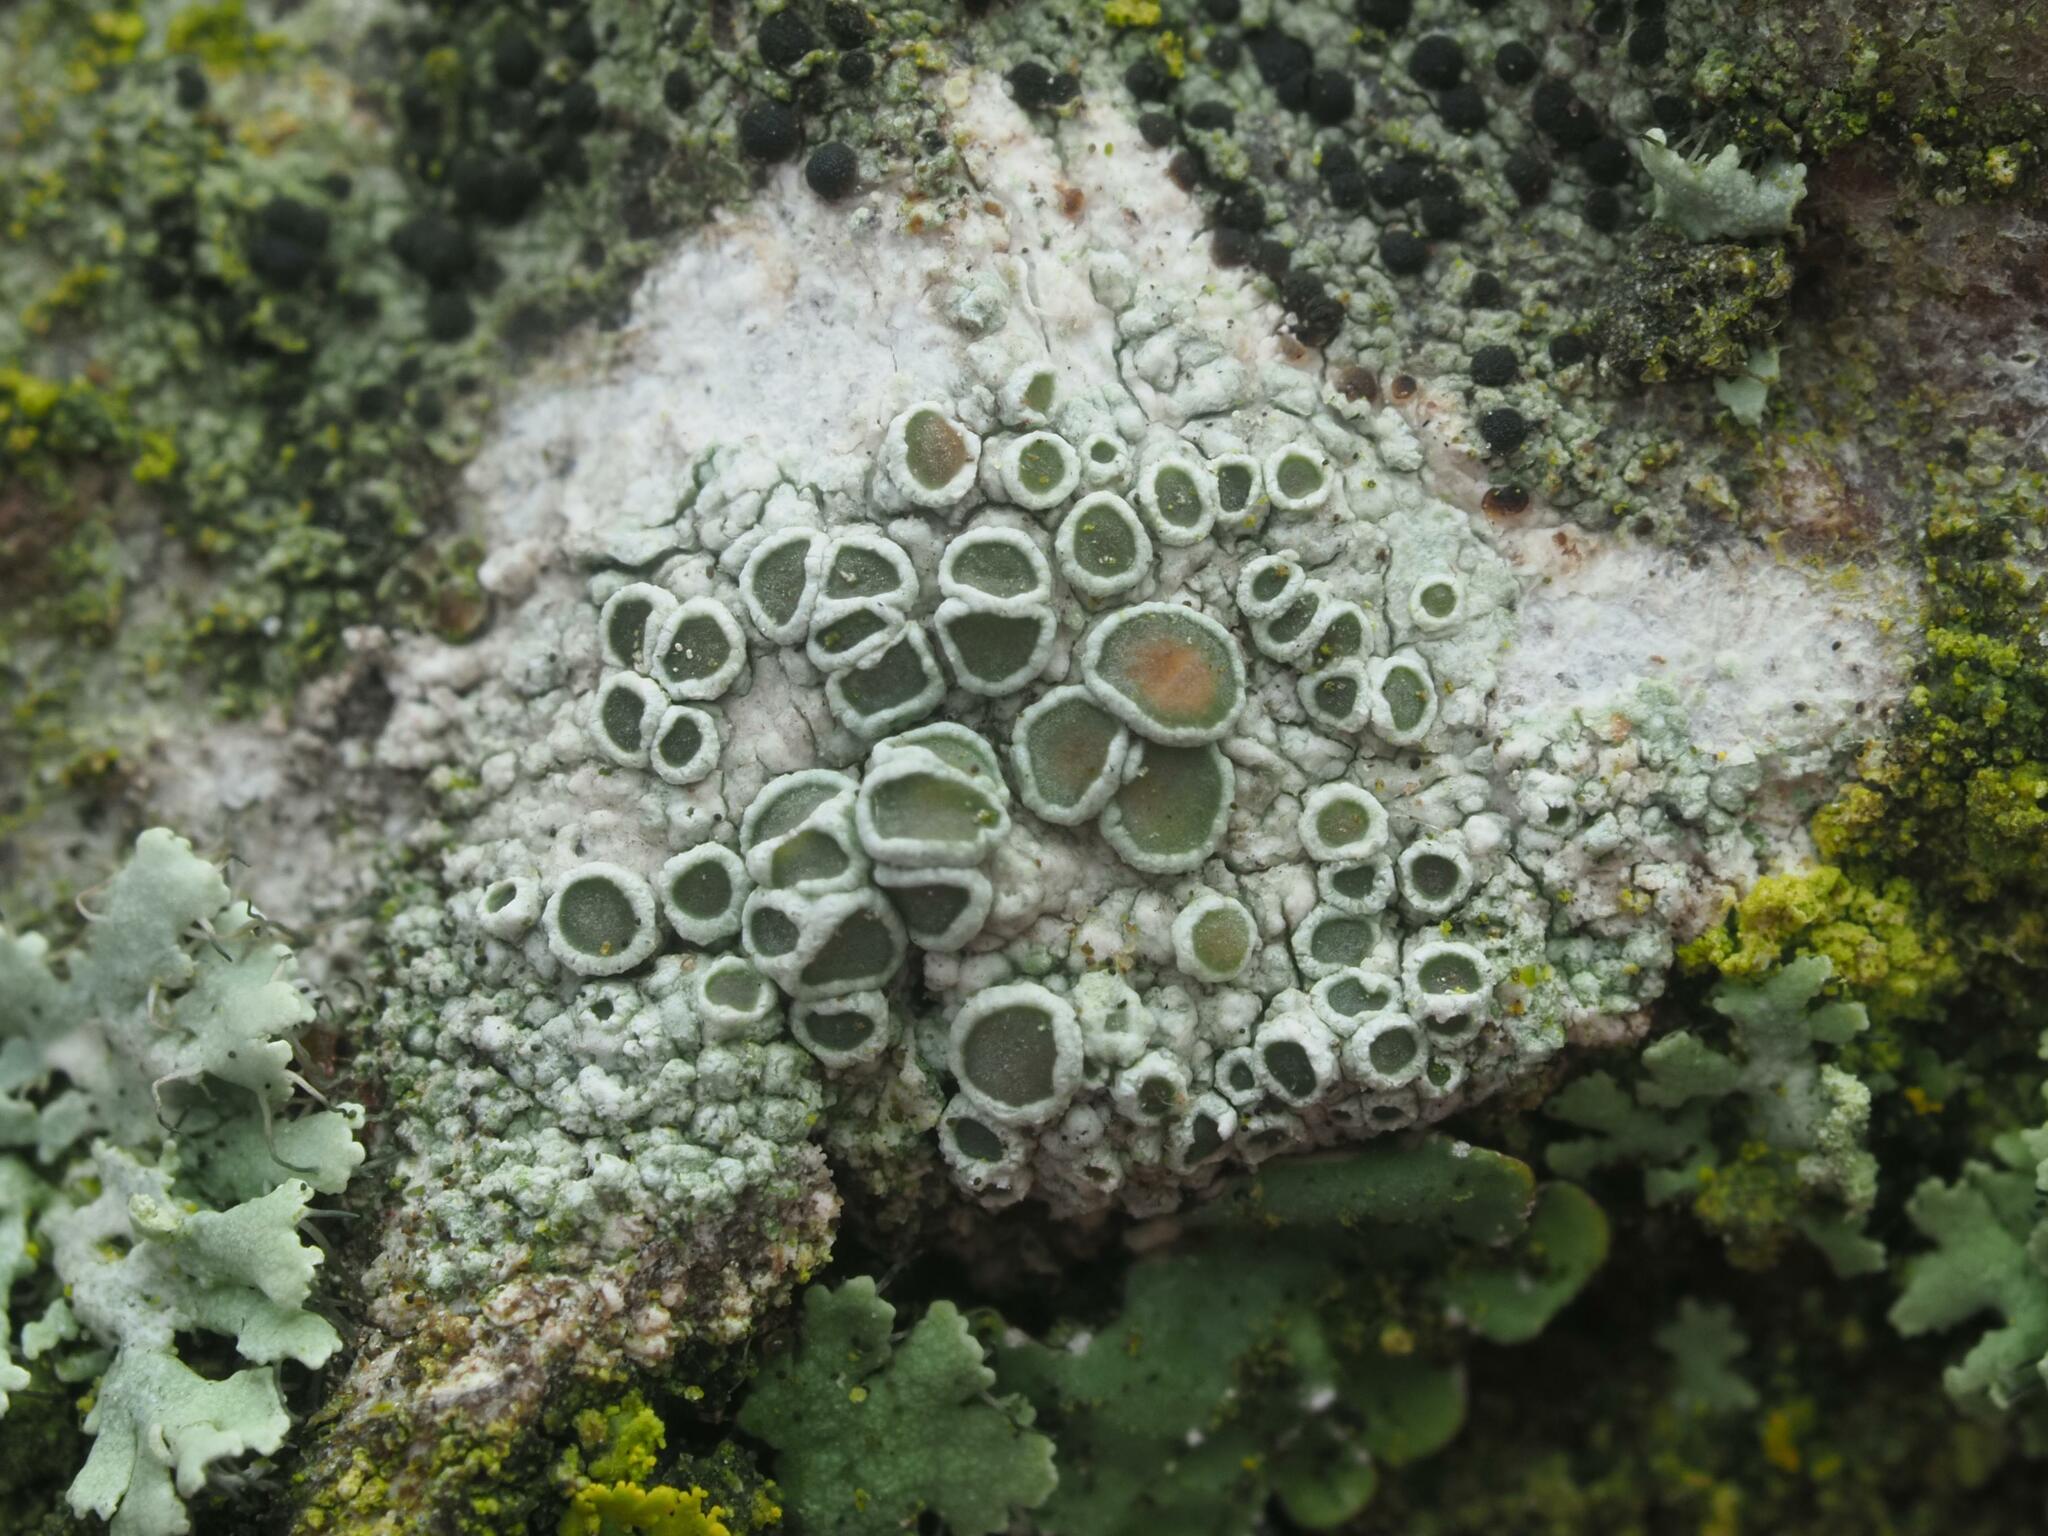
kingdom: Fungi
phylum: Ascomycota
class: Lecanoromycetes
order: Lecanorales
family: Lecanoraceae
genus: Lecanora
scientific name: Lecanora chlarotera
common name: Brown rim-lichen
